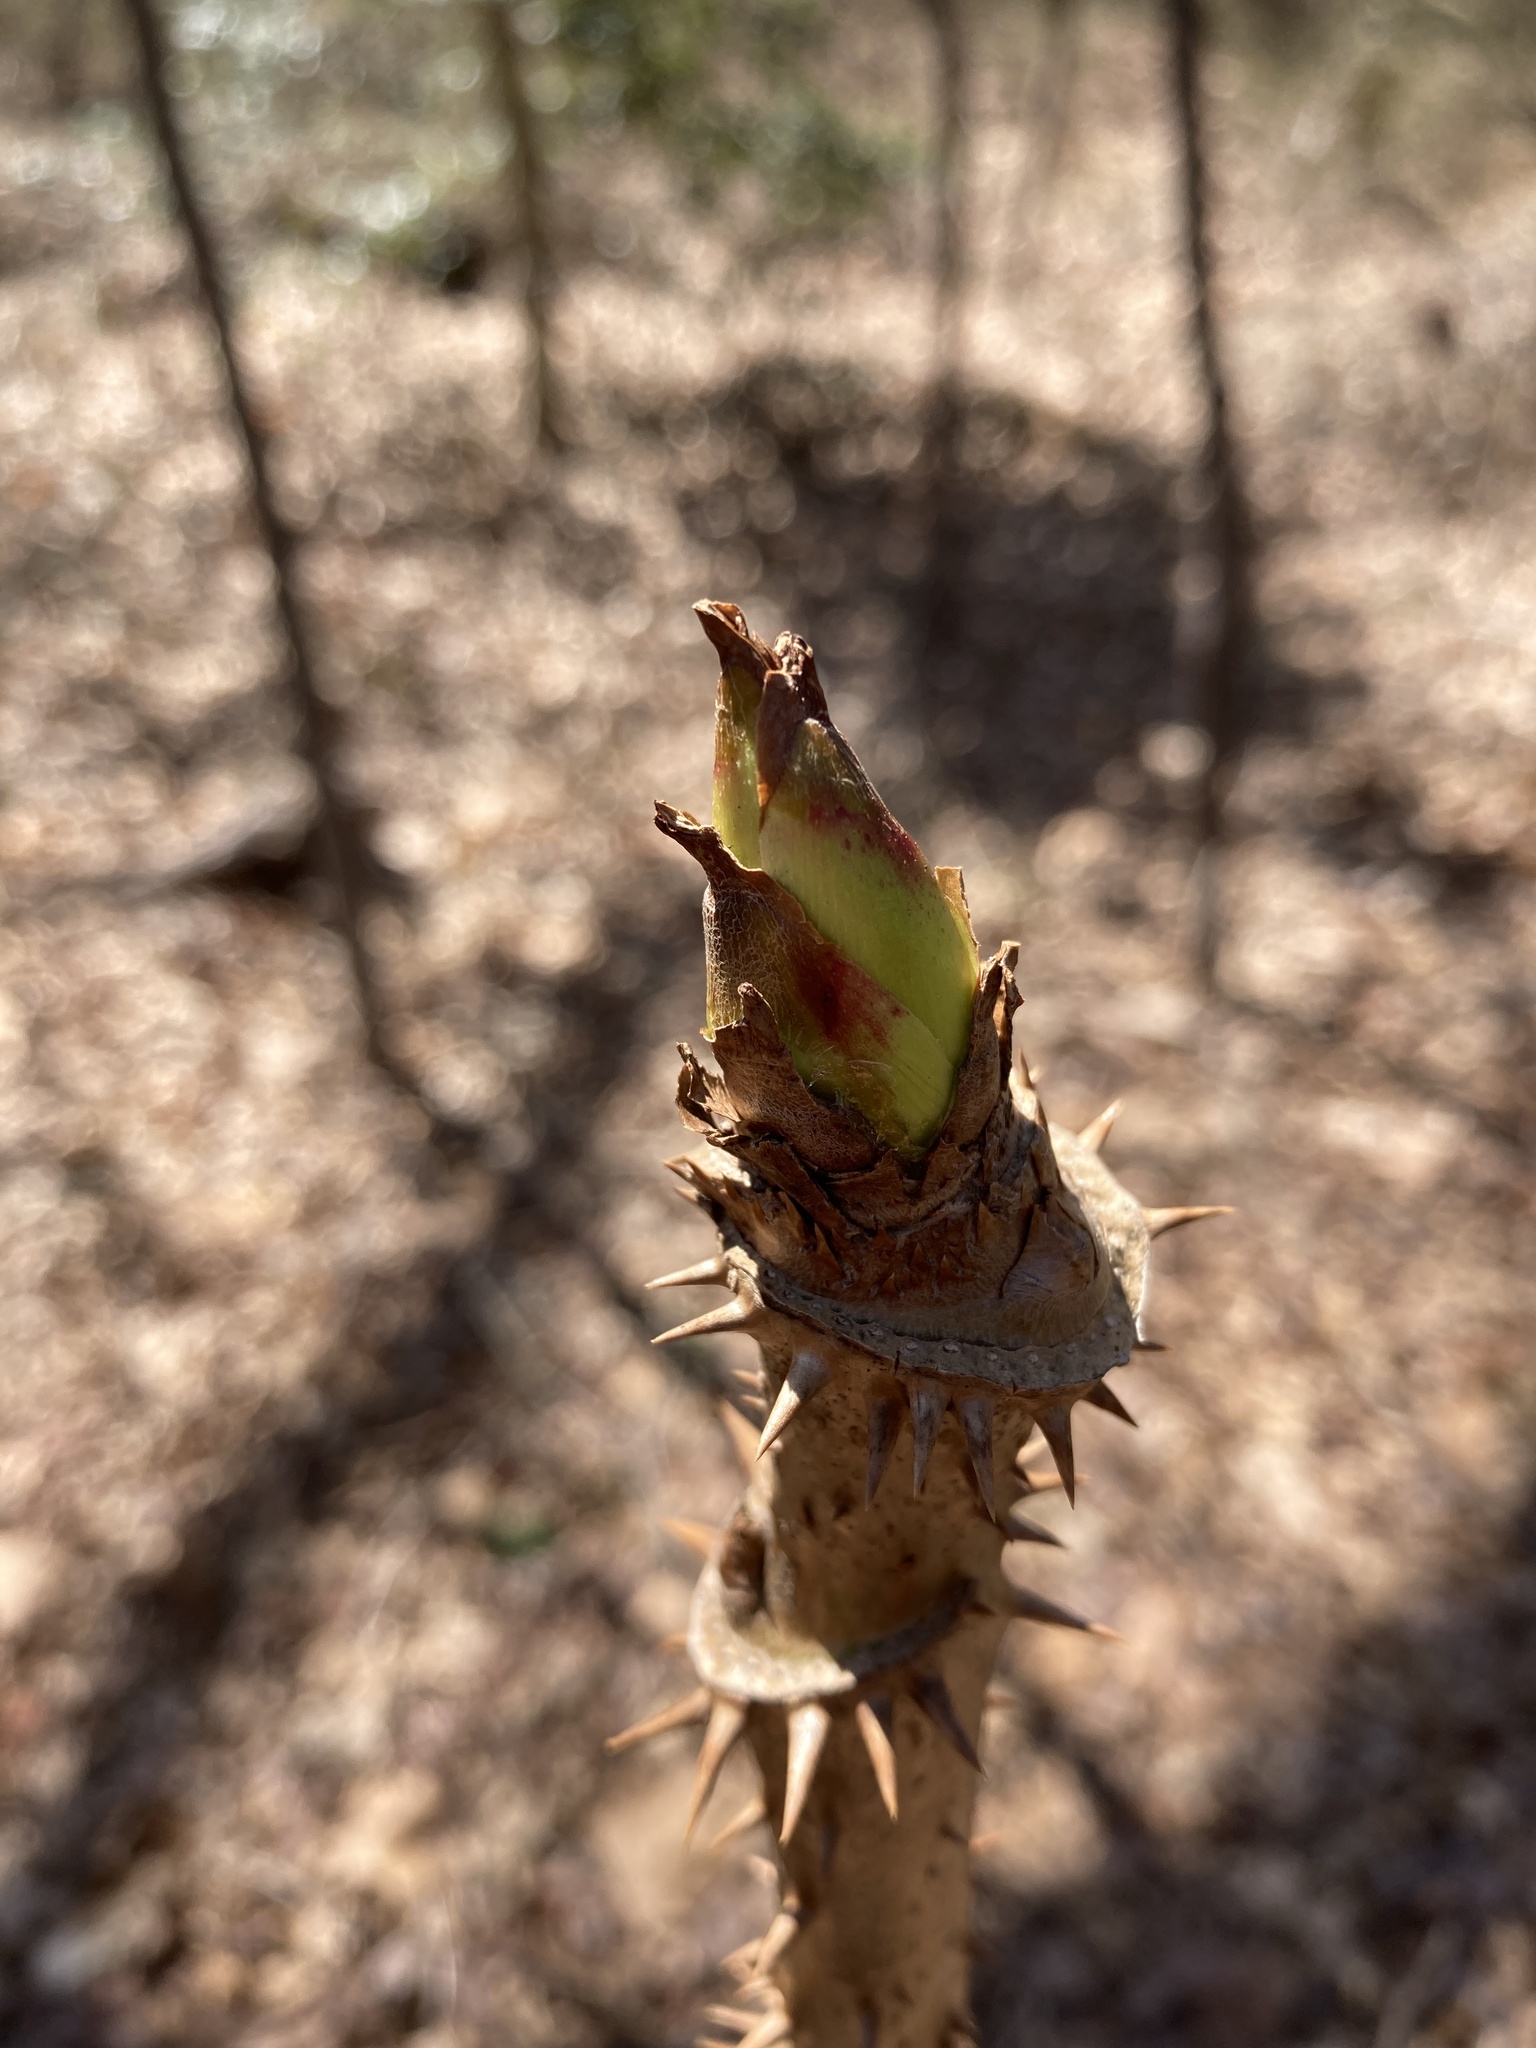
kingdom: Plantae
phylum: Tracheophyta
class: Magnoliopsida
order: Apiales
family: Araliaceae
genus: Aralia
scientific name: Aralia spinosa
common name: Hercules'-club
